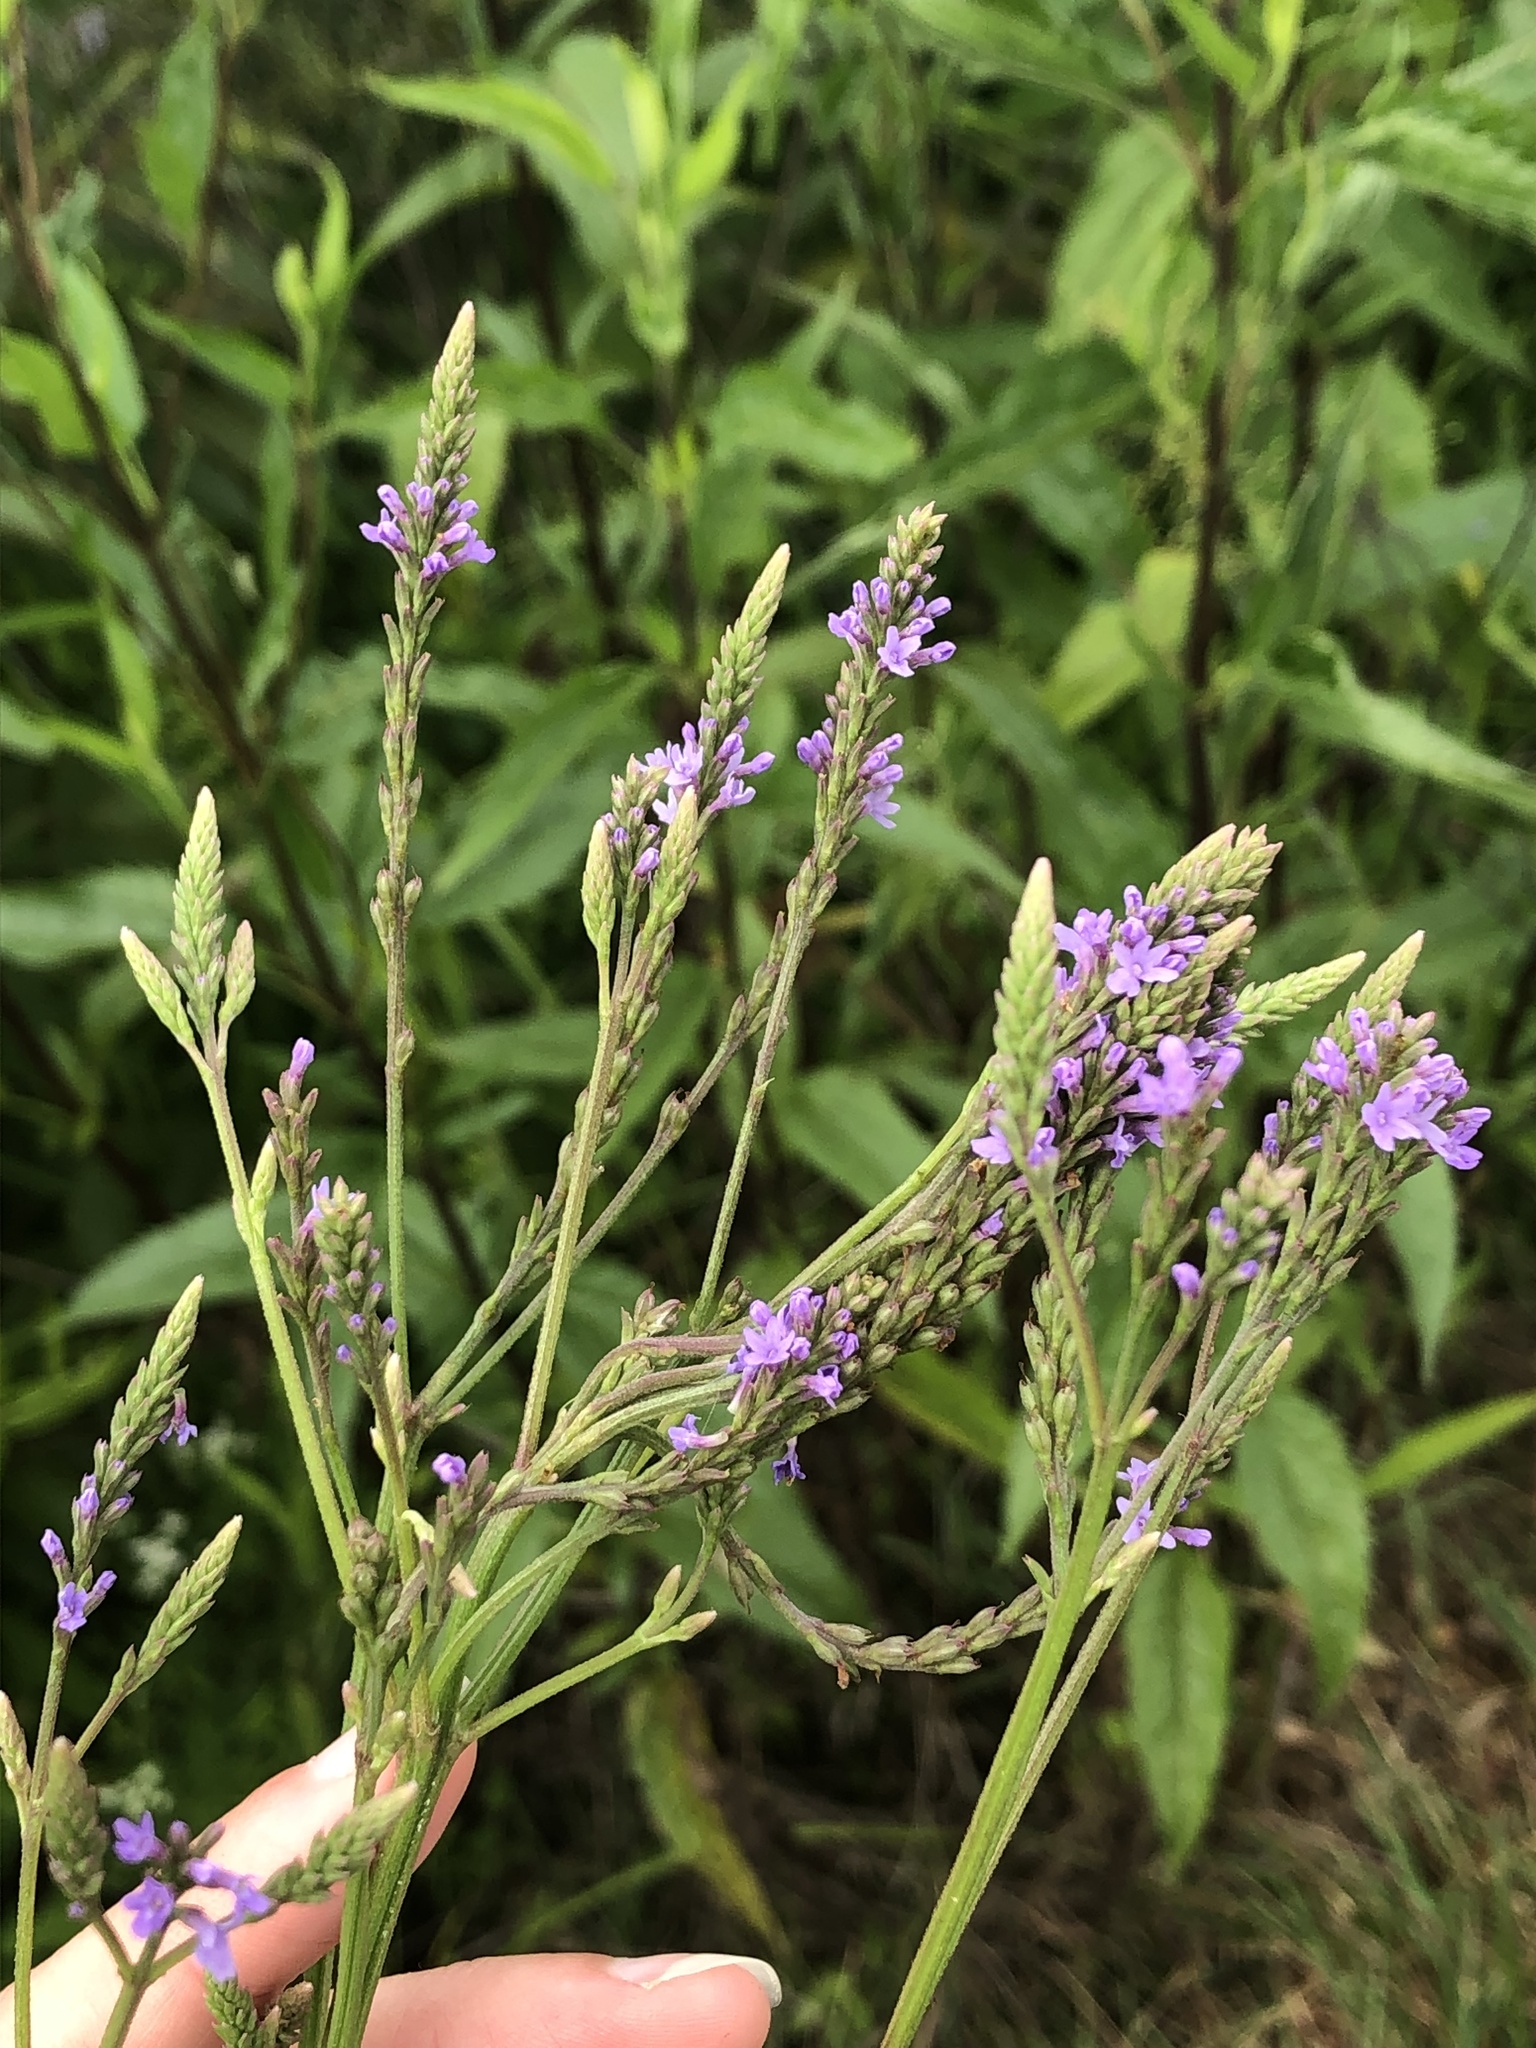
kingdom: Plantae
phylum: Tracheophyta
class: Magnoliopsida
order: Lamiales
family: Verbenaceae
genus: Verbena
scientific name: Verbena hastata
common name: American blue vervain
